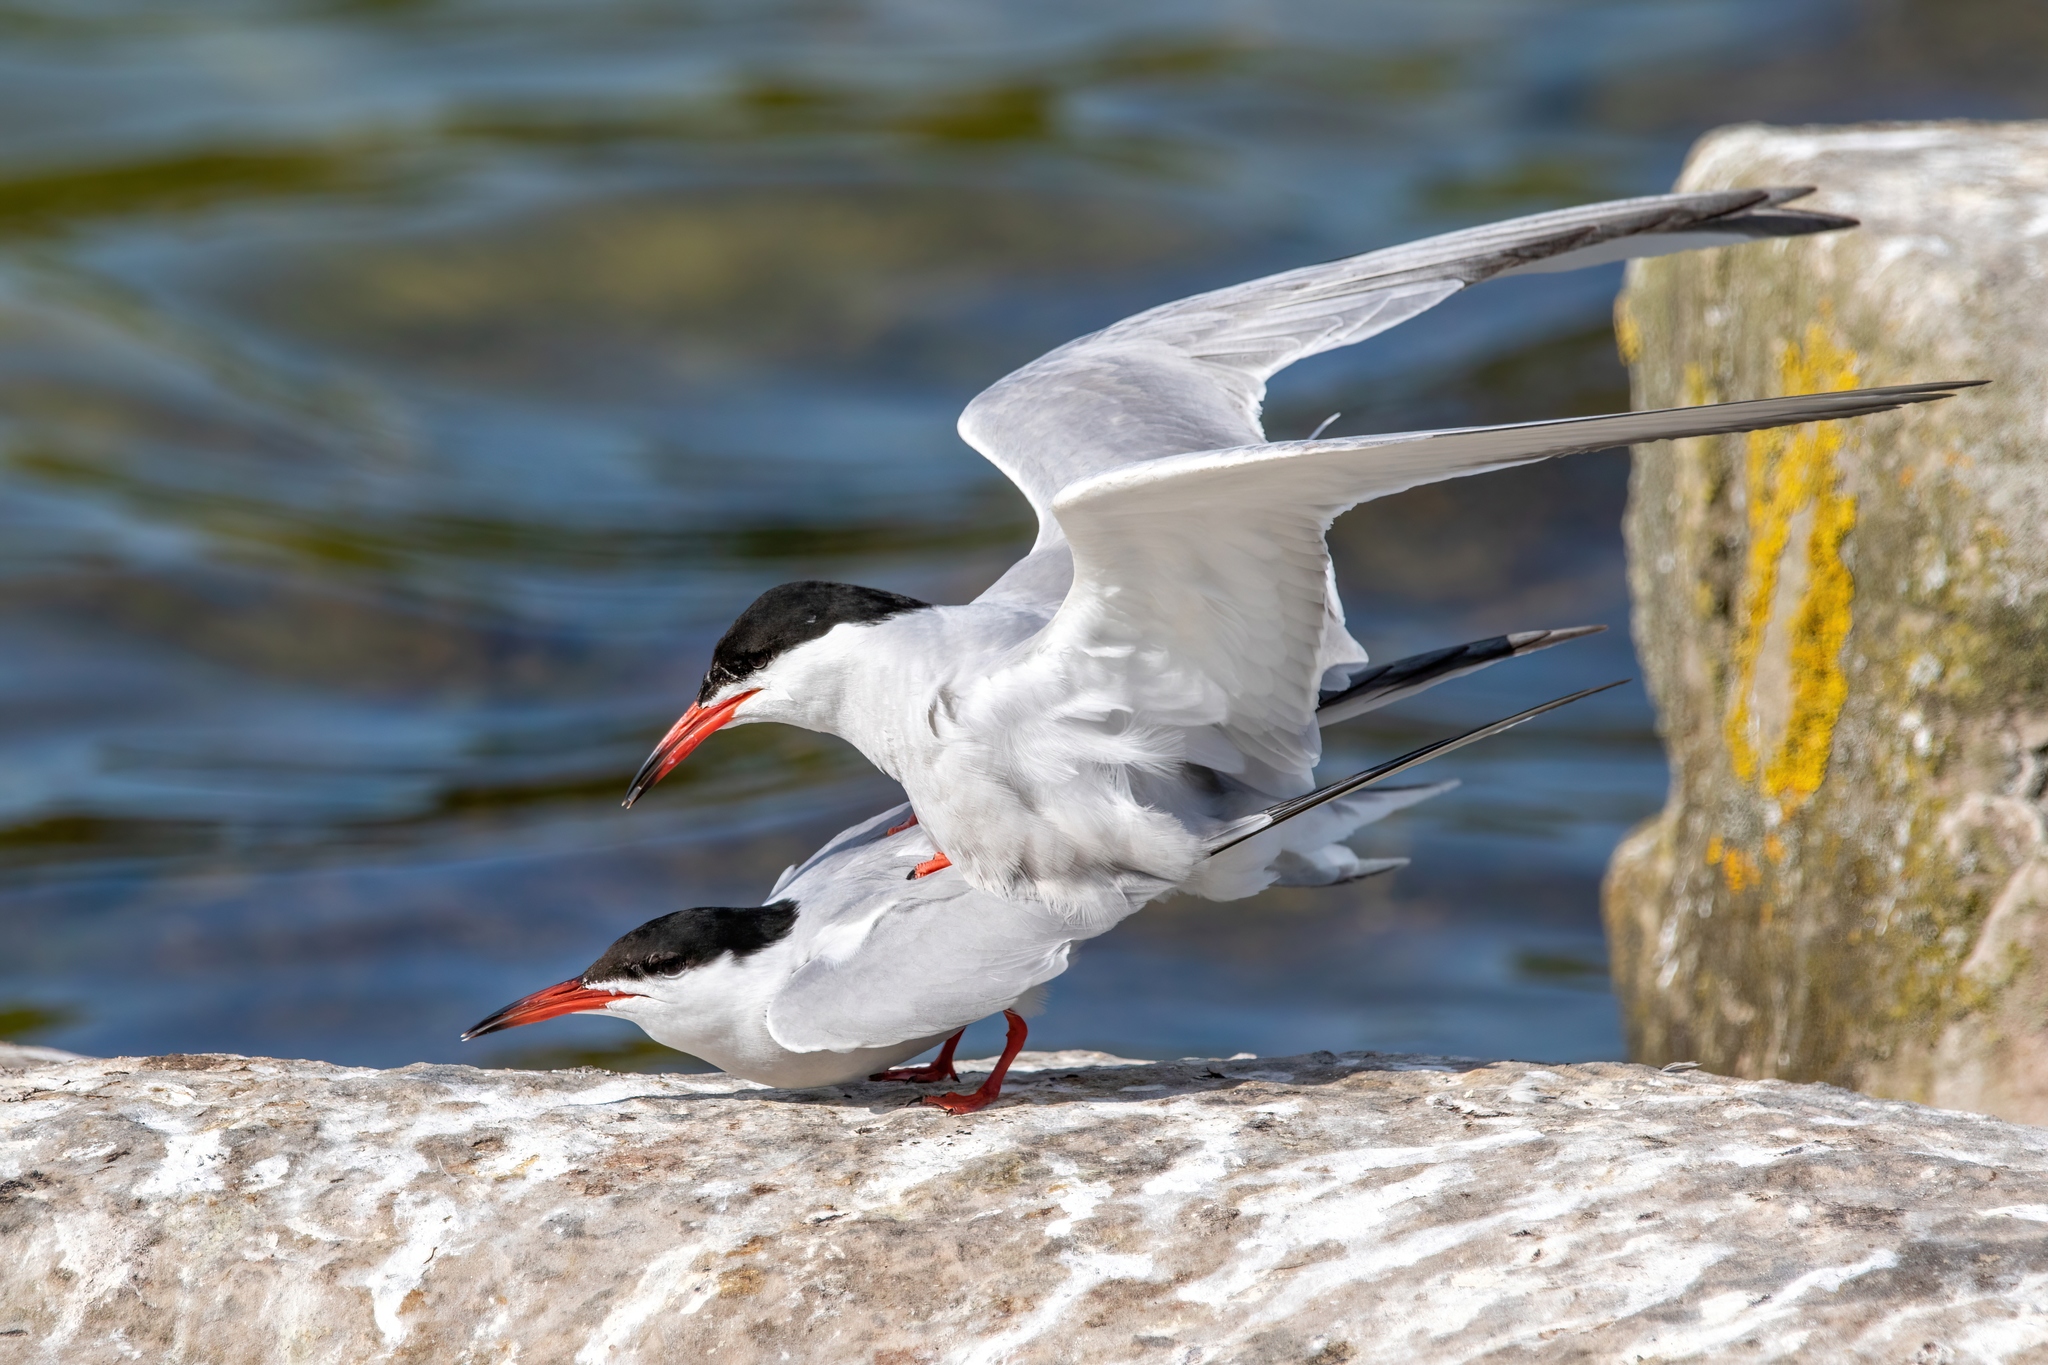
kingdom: Animalia
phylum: Chordata
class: Aves
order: Charadriiformes
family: Laridae
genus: Sterna
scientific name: Sterna hirundo
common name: Common tern
